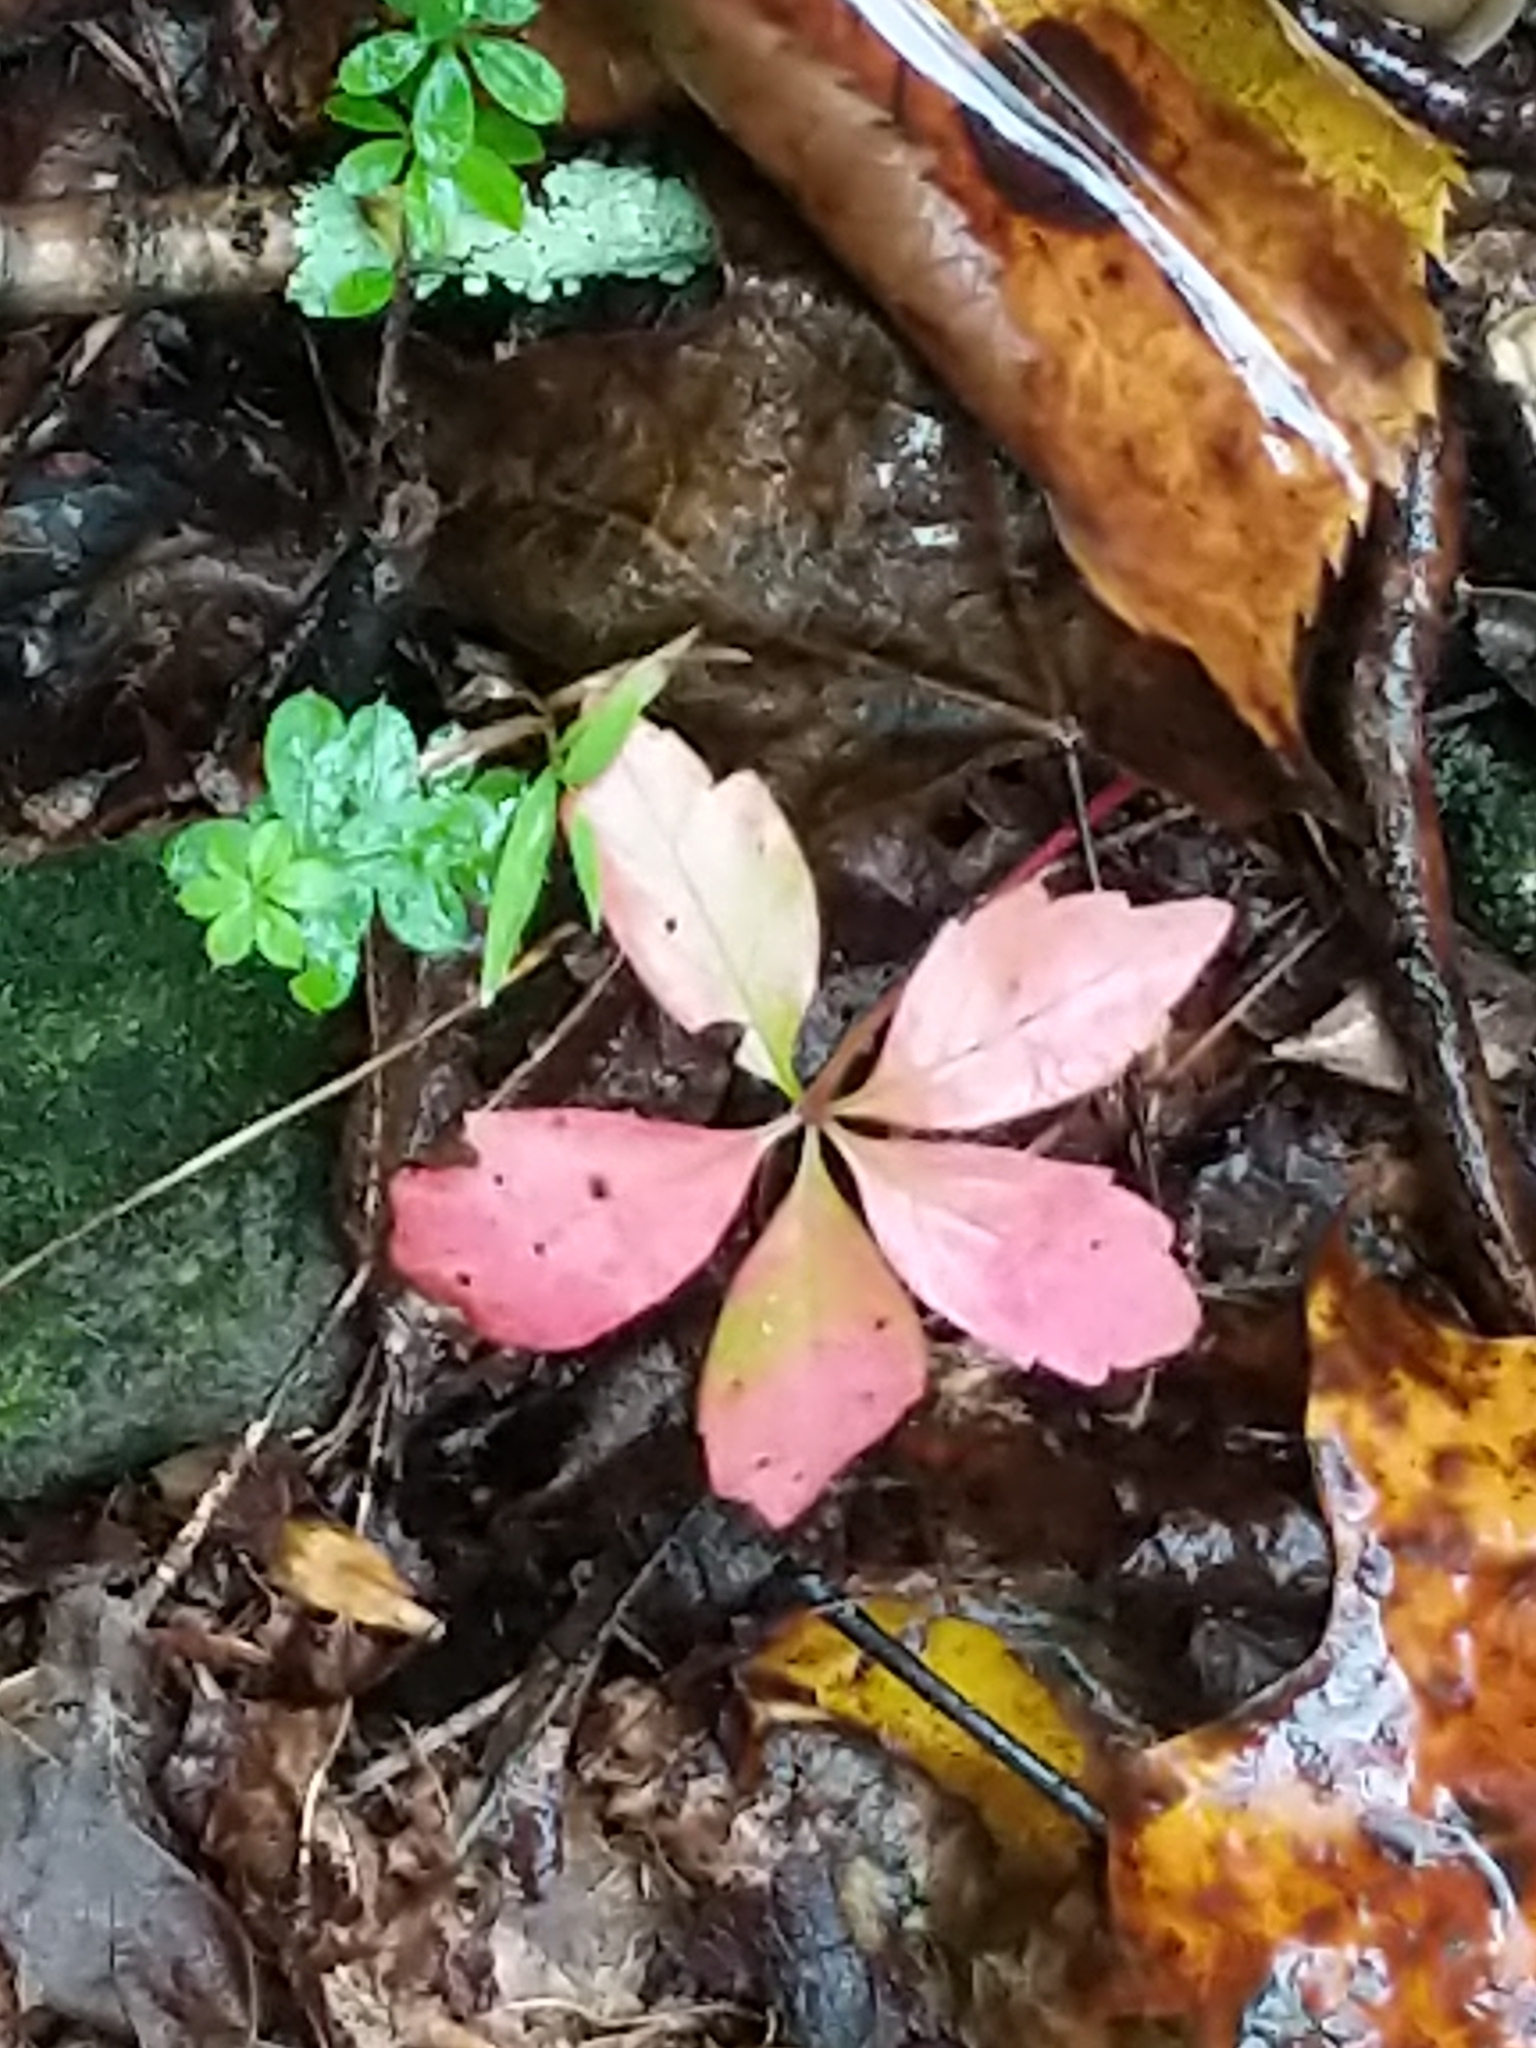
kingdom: Plantae
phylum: Tracheophyta
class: Magnoliopsida
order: Vitales
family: Vitaceae
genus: Parthenocissus
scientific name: Parthenocissus quinquefolia
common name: Virginia-creeper
